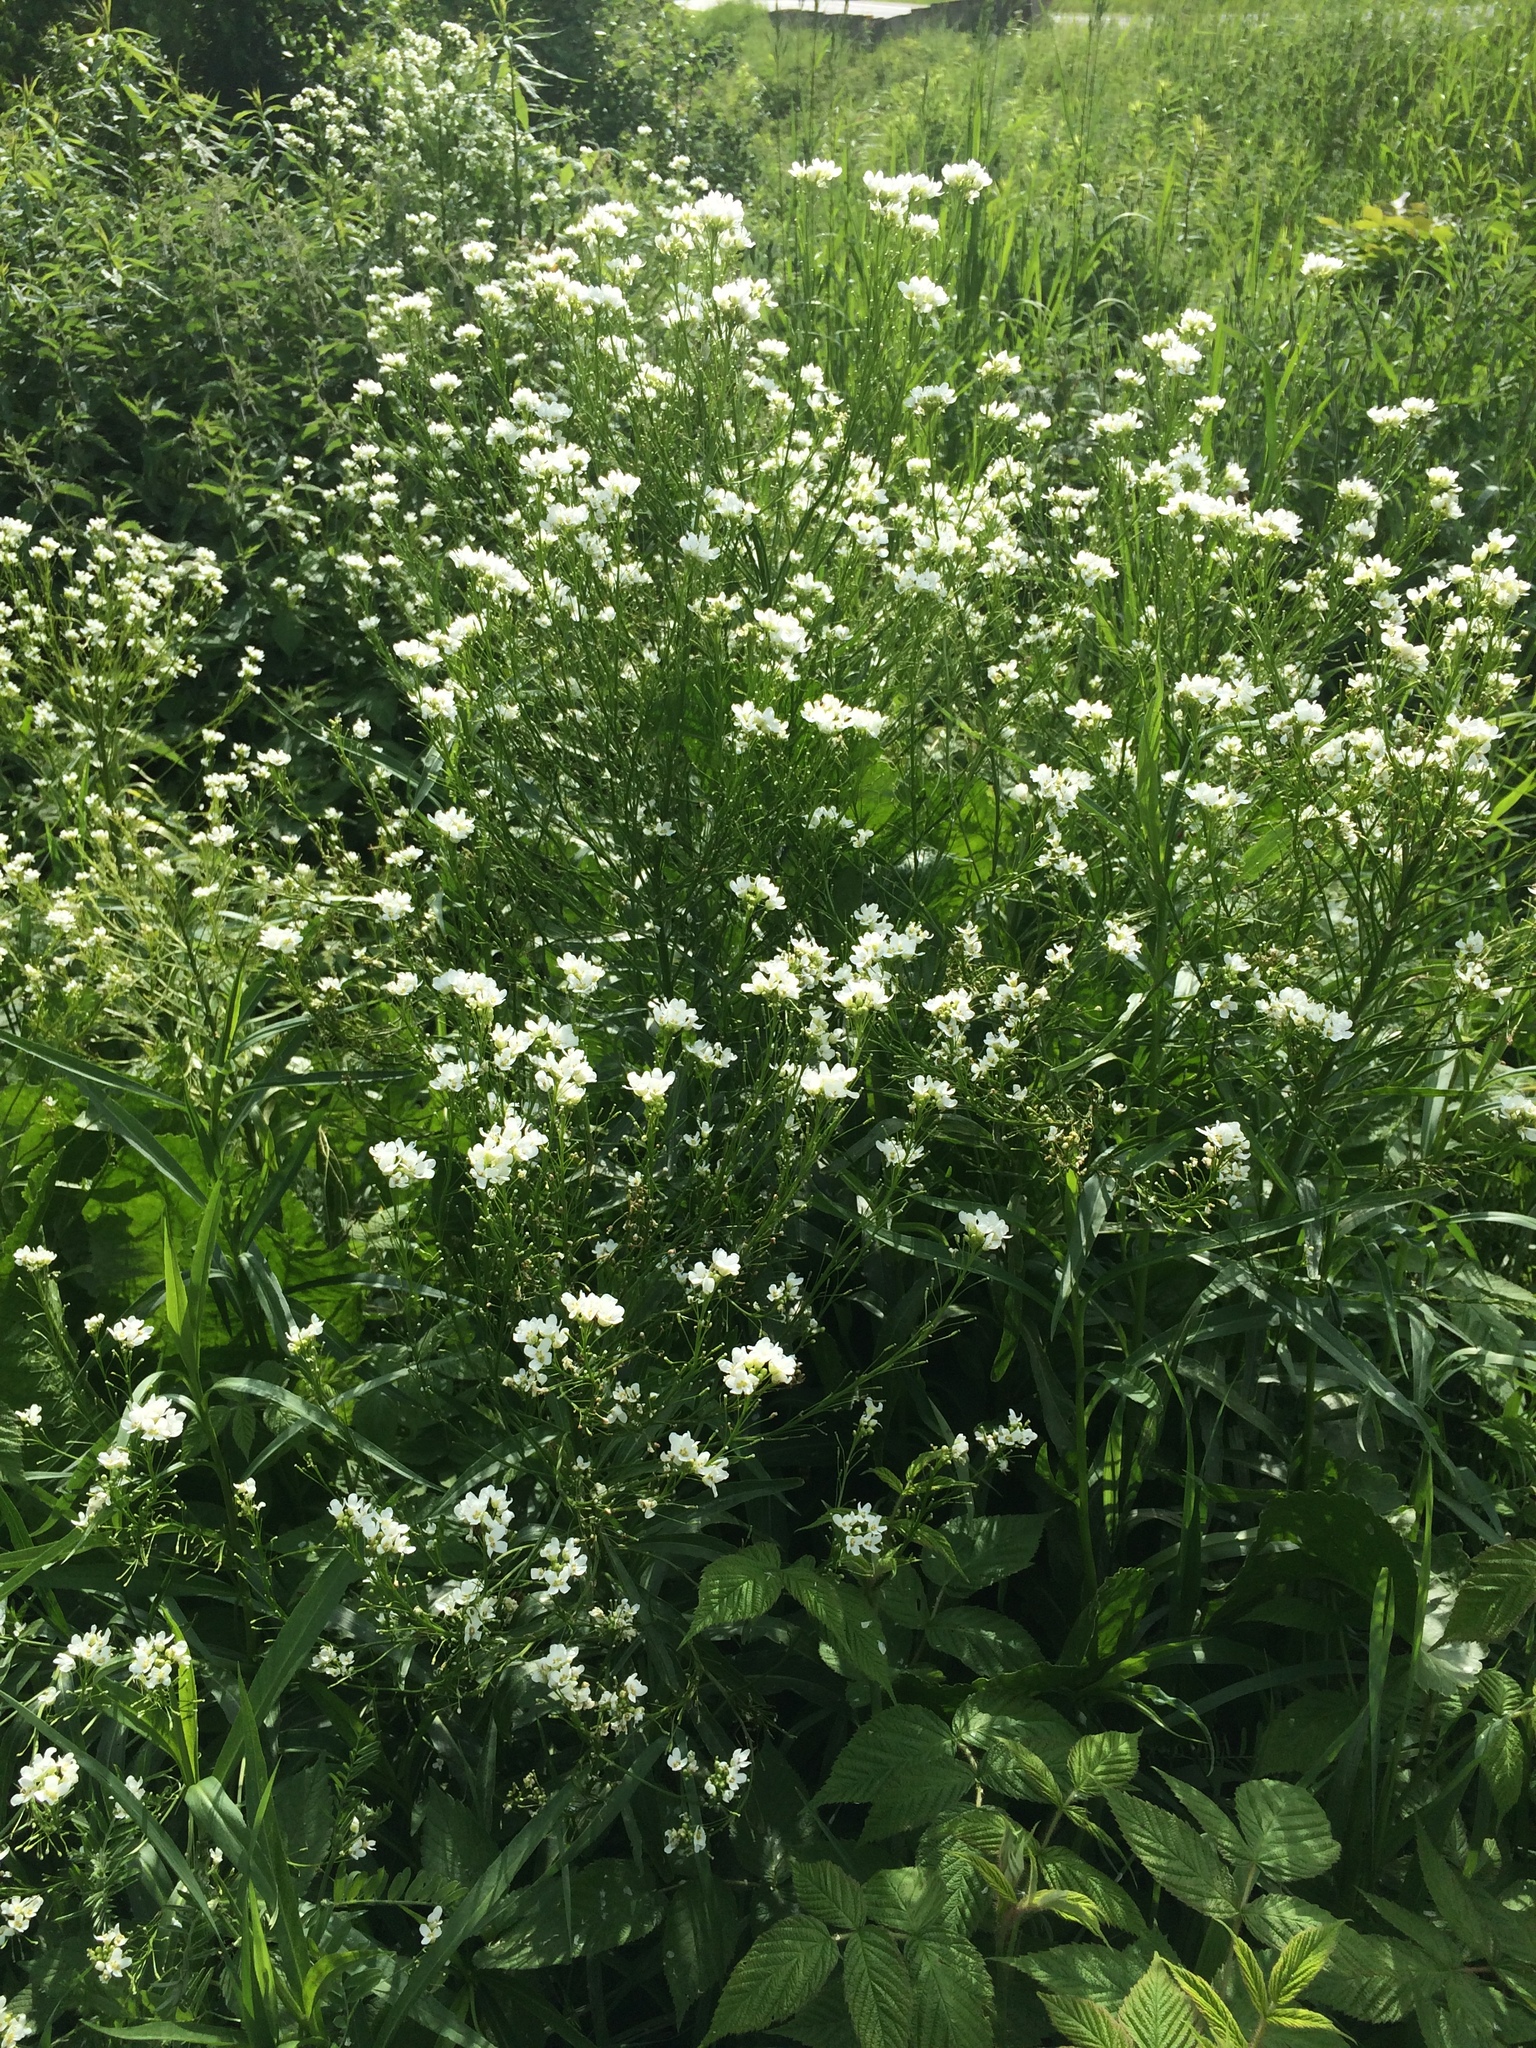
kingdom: Plantae
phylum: Tracheophyta
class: Magnoliopsida
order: Brassicales
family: Brassicaceae
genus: Armoracia
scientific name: Armoracia rusticana
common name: Horseradish
